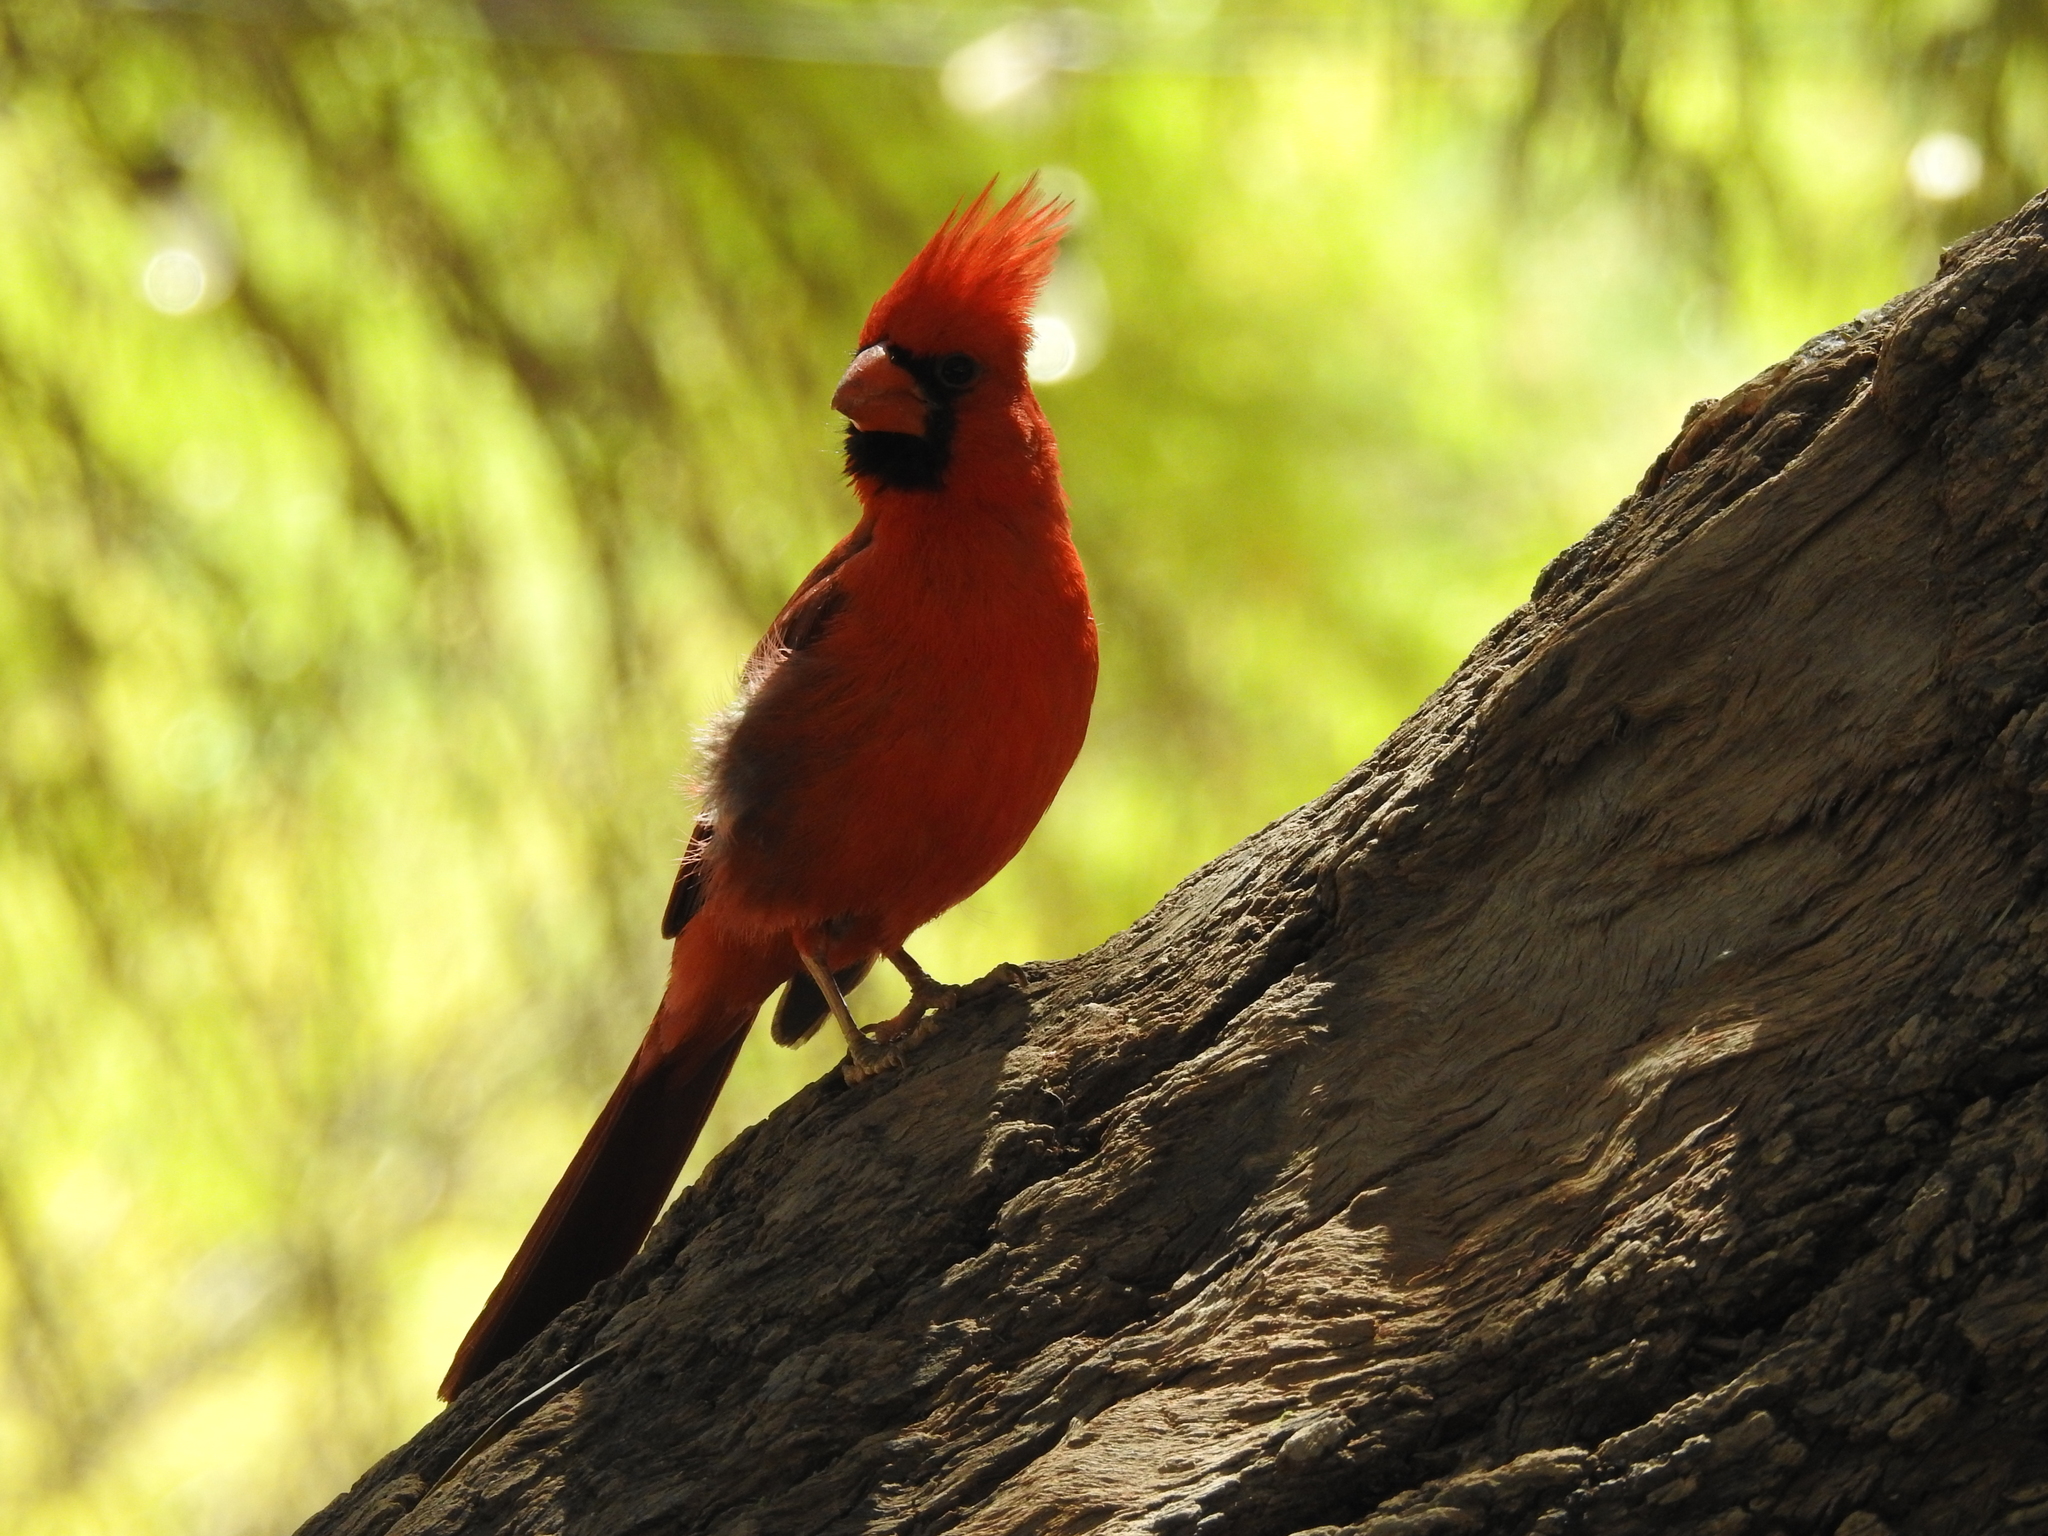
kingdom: Animalia
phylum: Chordata
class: Aves
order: Passeriformes
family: Cardinalidae
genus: Cardinalis
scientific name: Cardinalis cardinalis
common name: Northern cardinal
